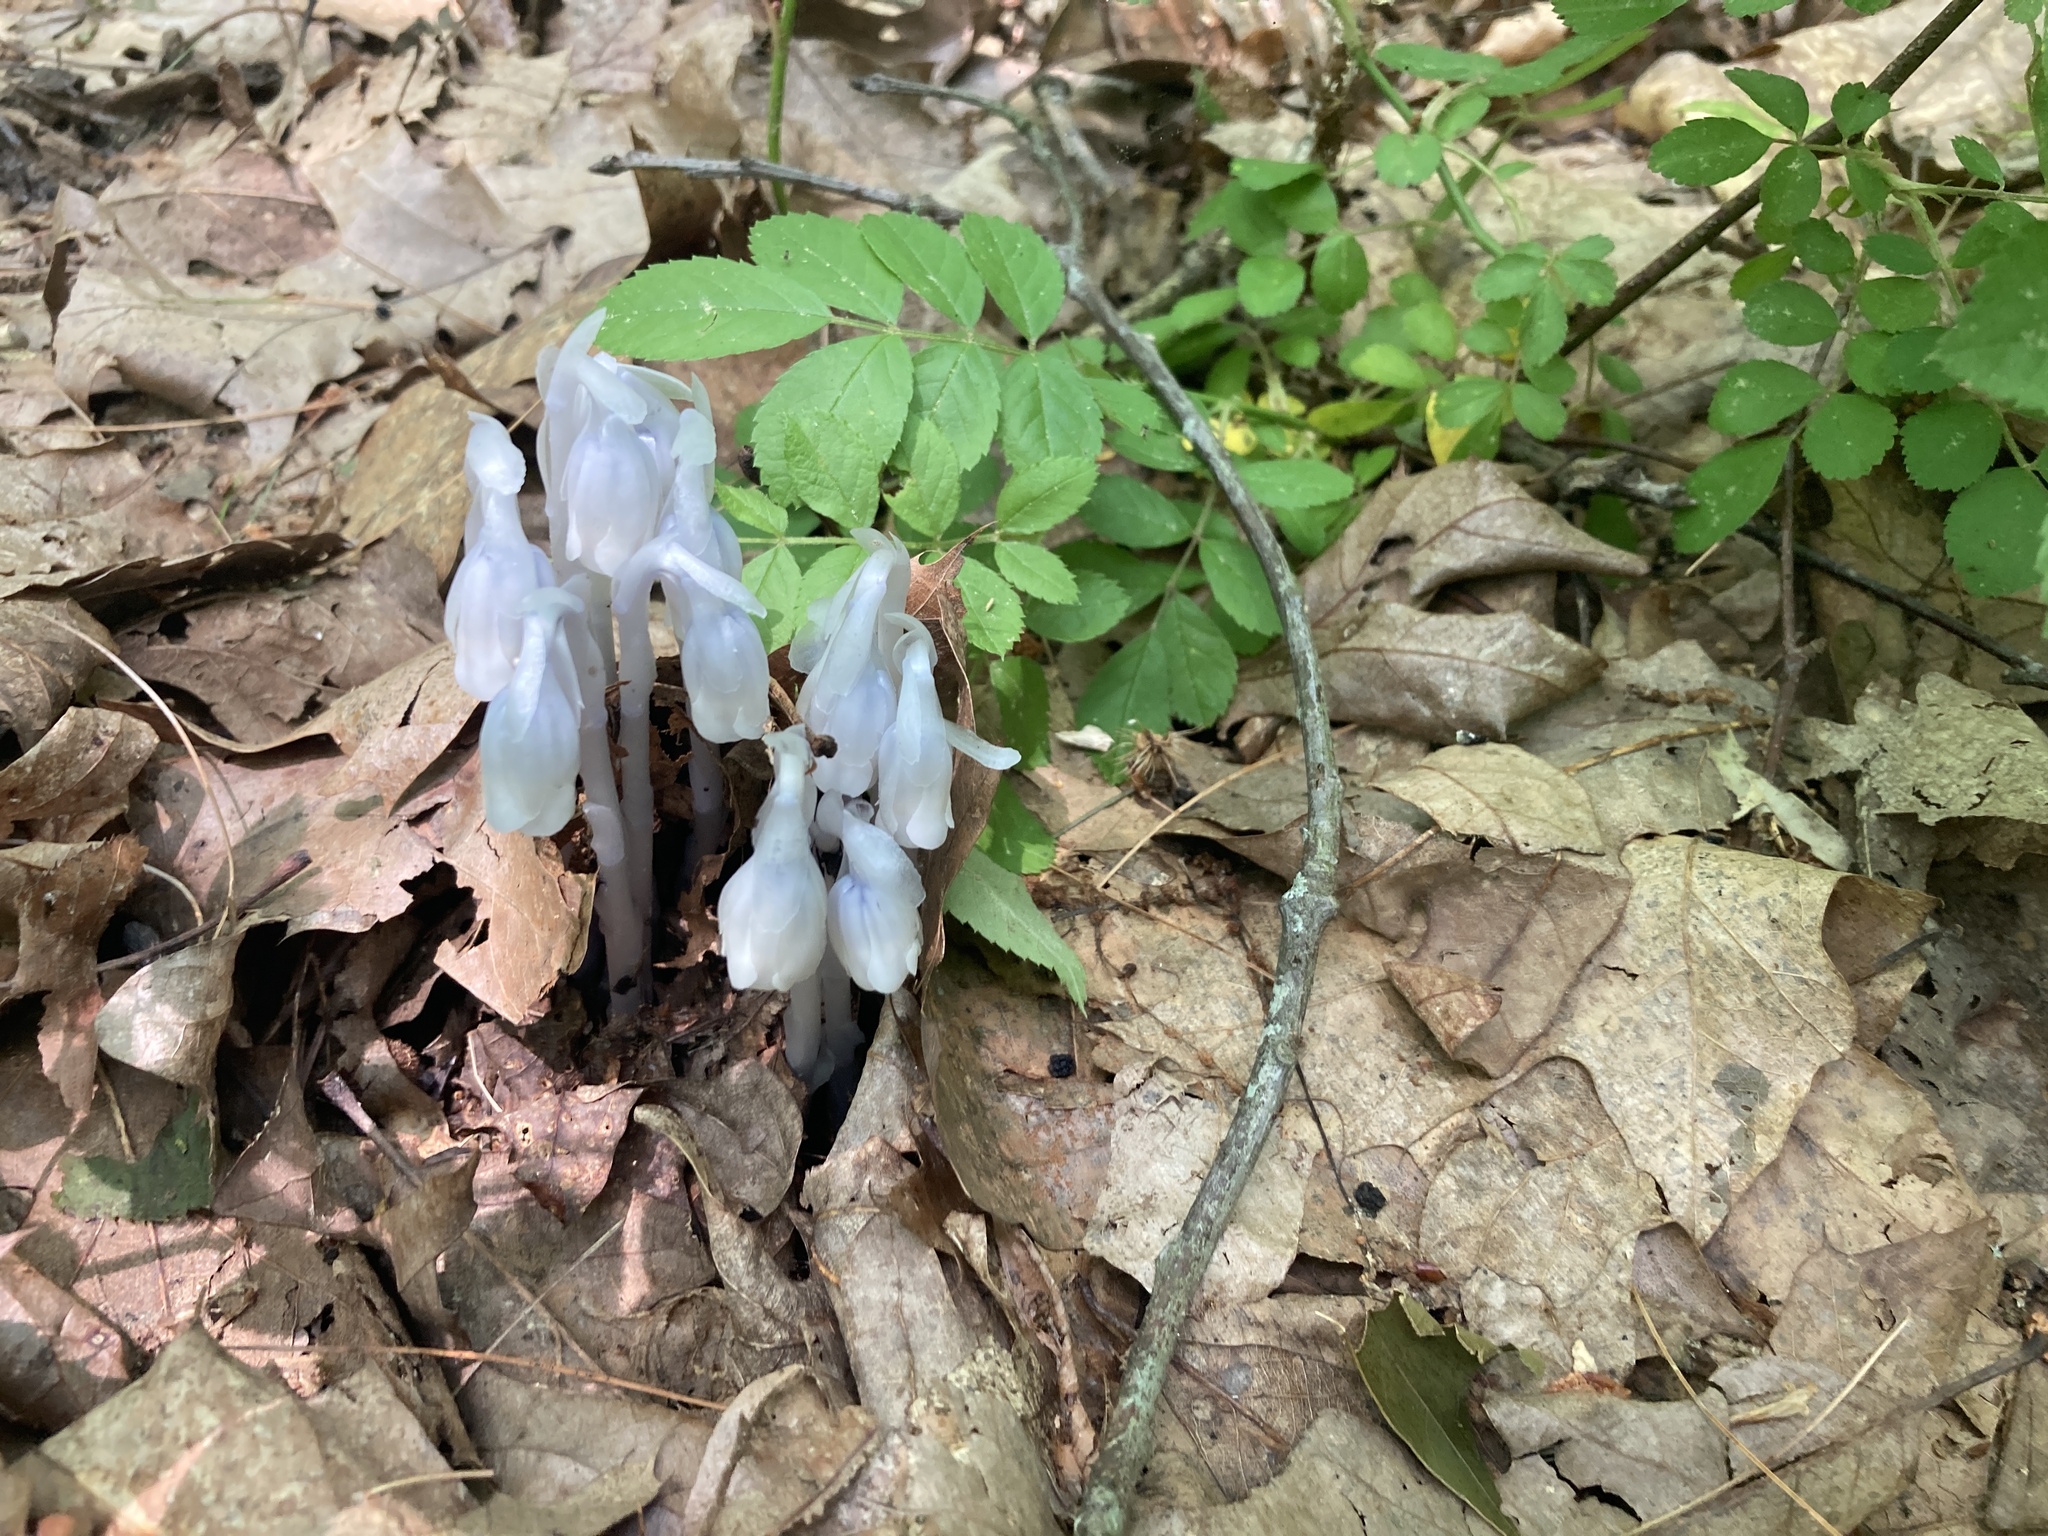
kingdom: Plantae
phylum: Tracheophyta
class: Magnoliopsida
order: Ericales
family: Ericaceae
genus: Monotropa
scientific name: Monotropa uniflora
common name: Convulsion root
